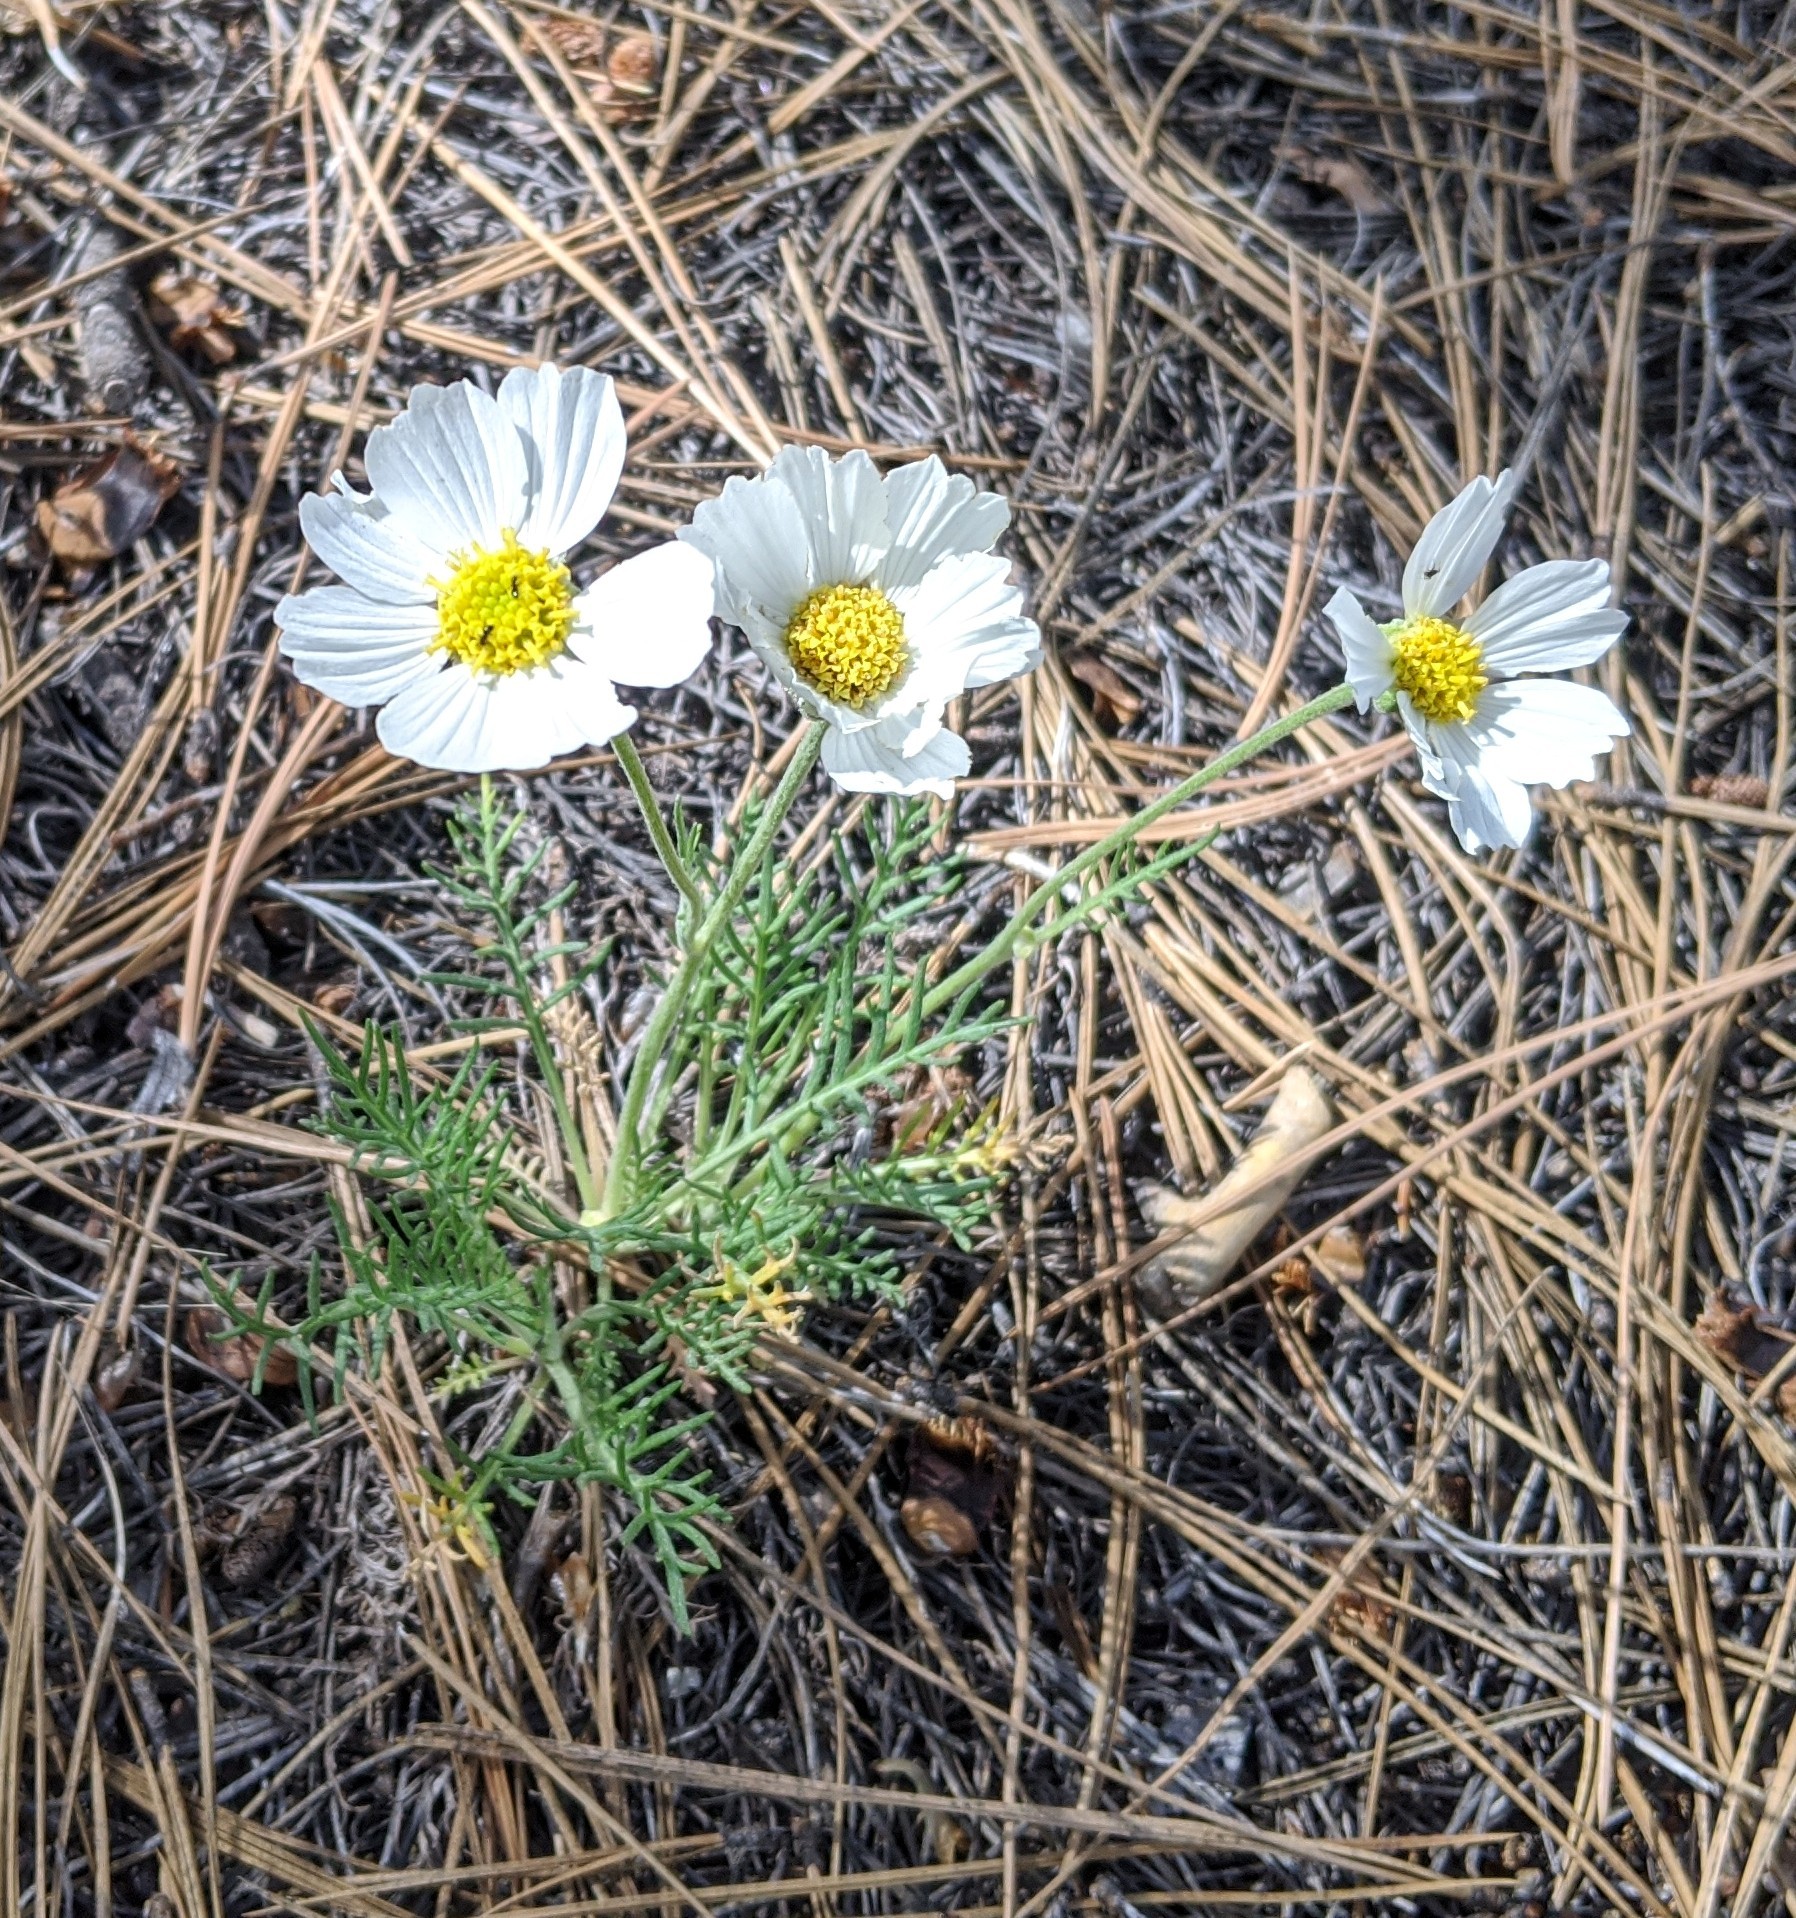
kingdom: Plantae
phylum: Tracheophyta
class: Magnoliopsida
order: Asterales
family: Asteraceae
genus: Hymenopappus
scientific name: Hymenopappus newberryi
